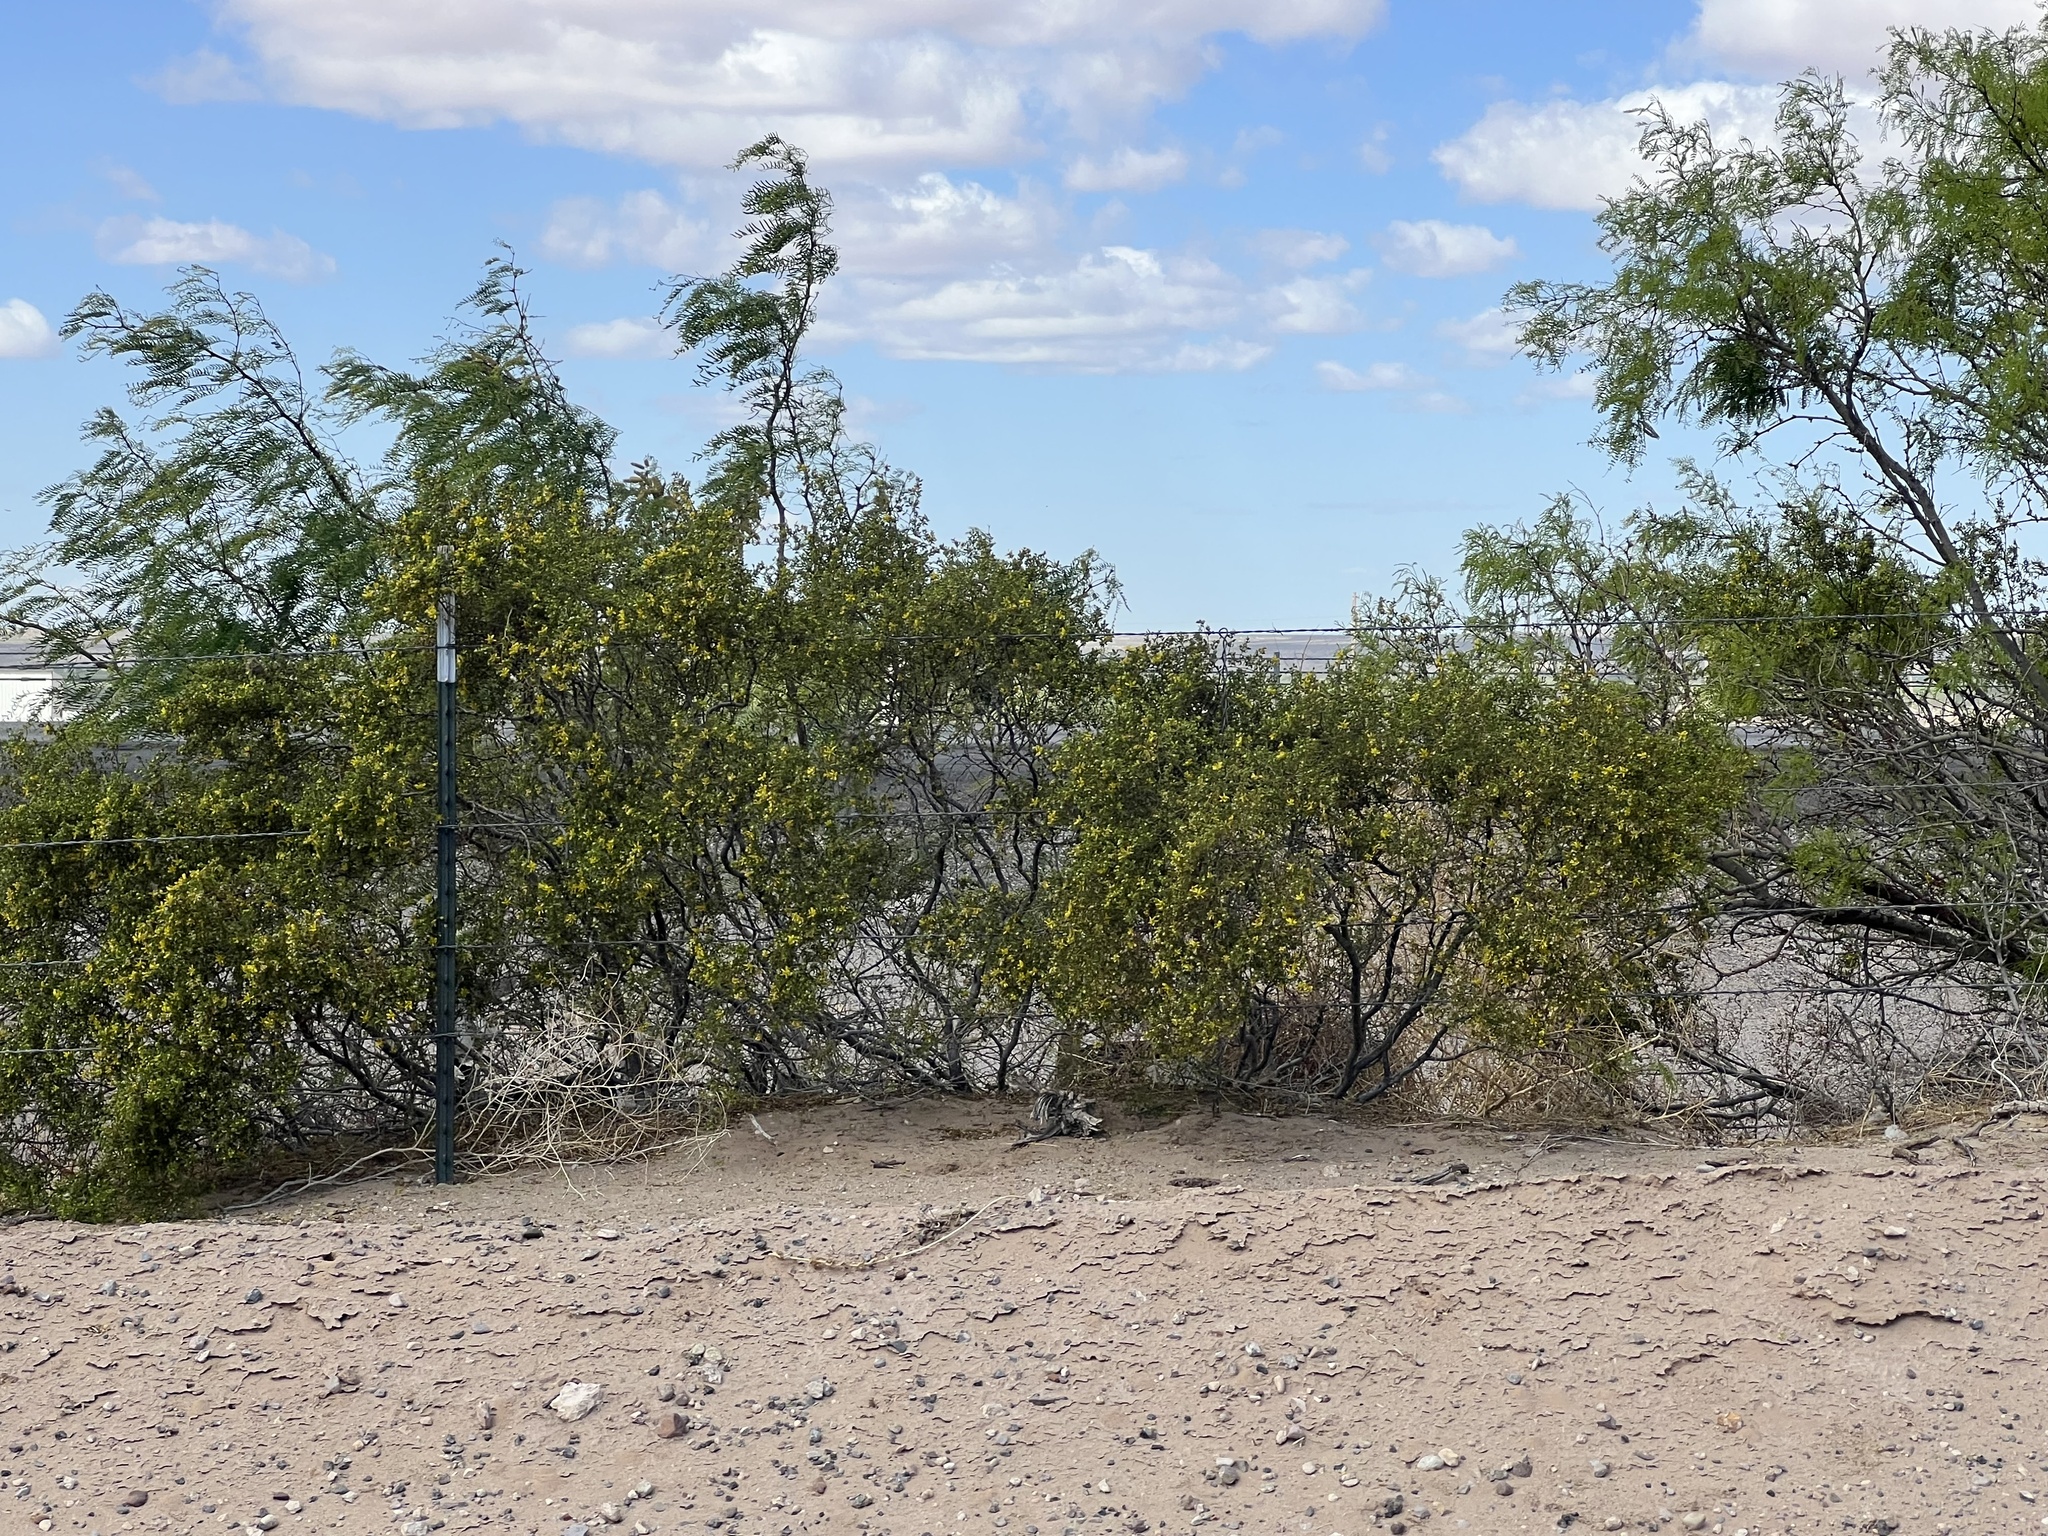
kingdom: Plantae
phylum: Tracheophyta
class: Magnoliopsida
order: Zygophyllales
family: Zygophyllaceae
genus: Larrea
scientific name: Larrea tridentata
